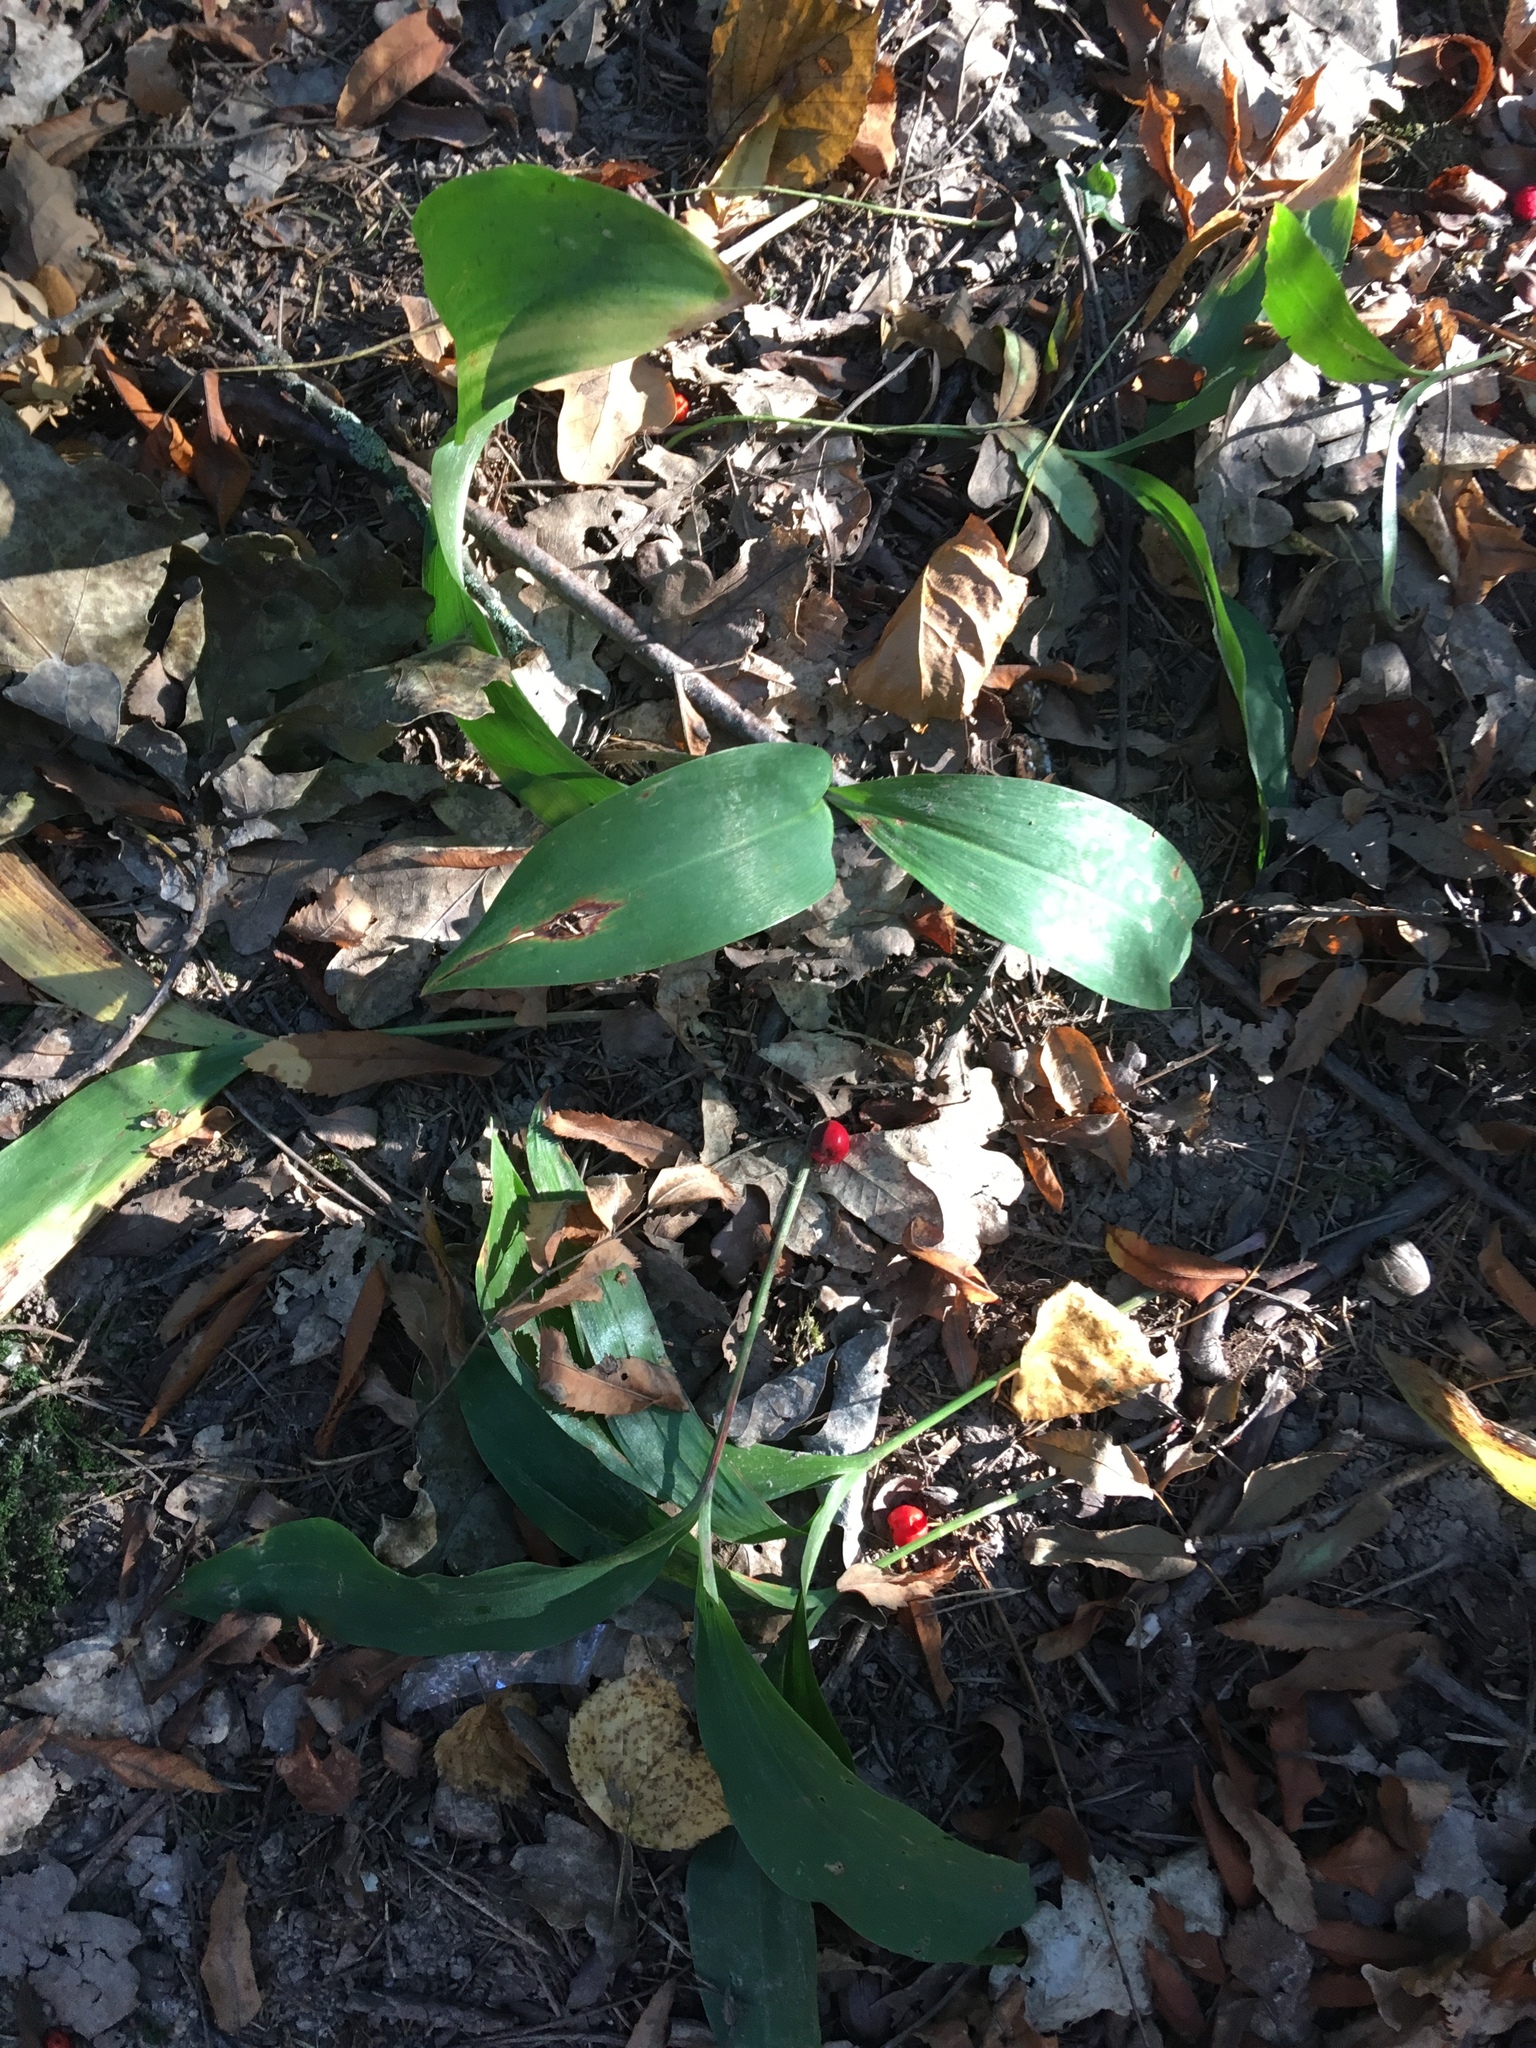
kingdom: Plantae
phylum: Tracheophyta
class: Liliopsida
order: Asparagales
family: Asparagaceae
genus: Convallaria
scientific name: Convallaria majalis
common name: Lily-of-the-valley
